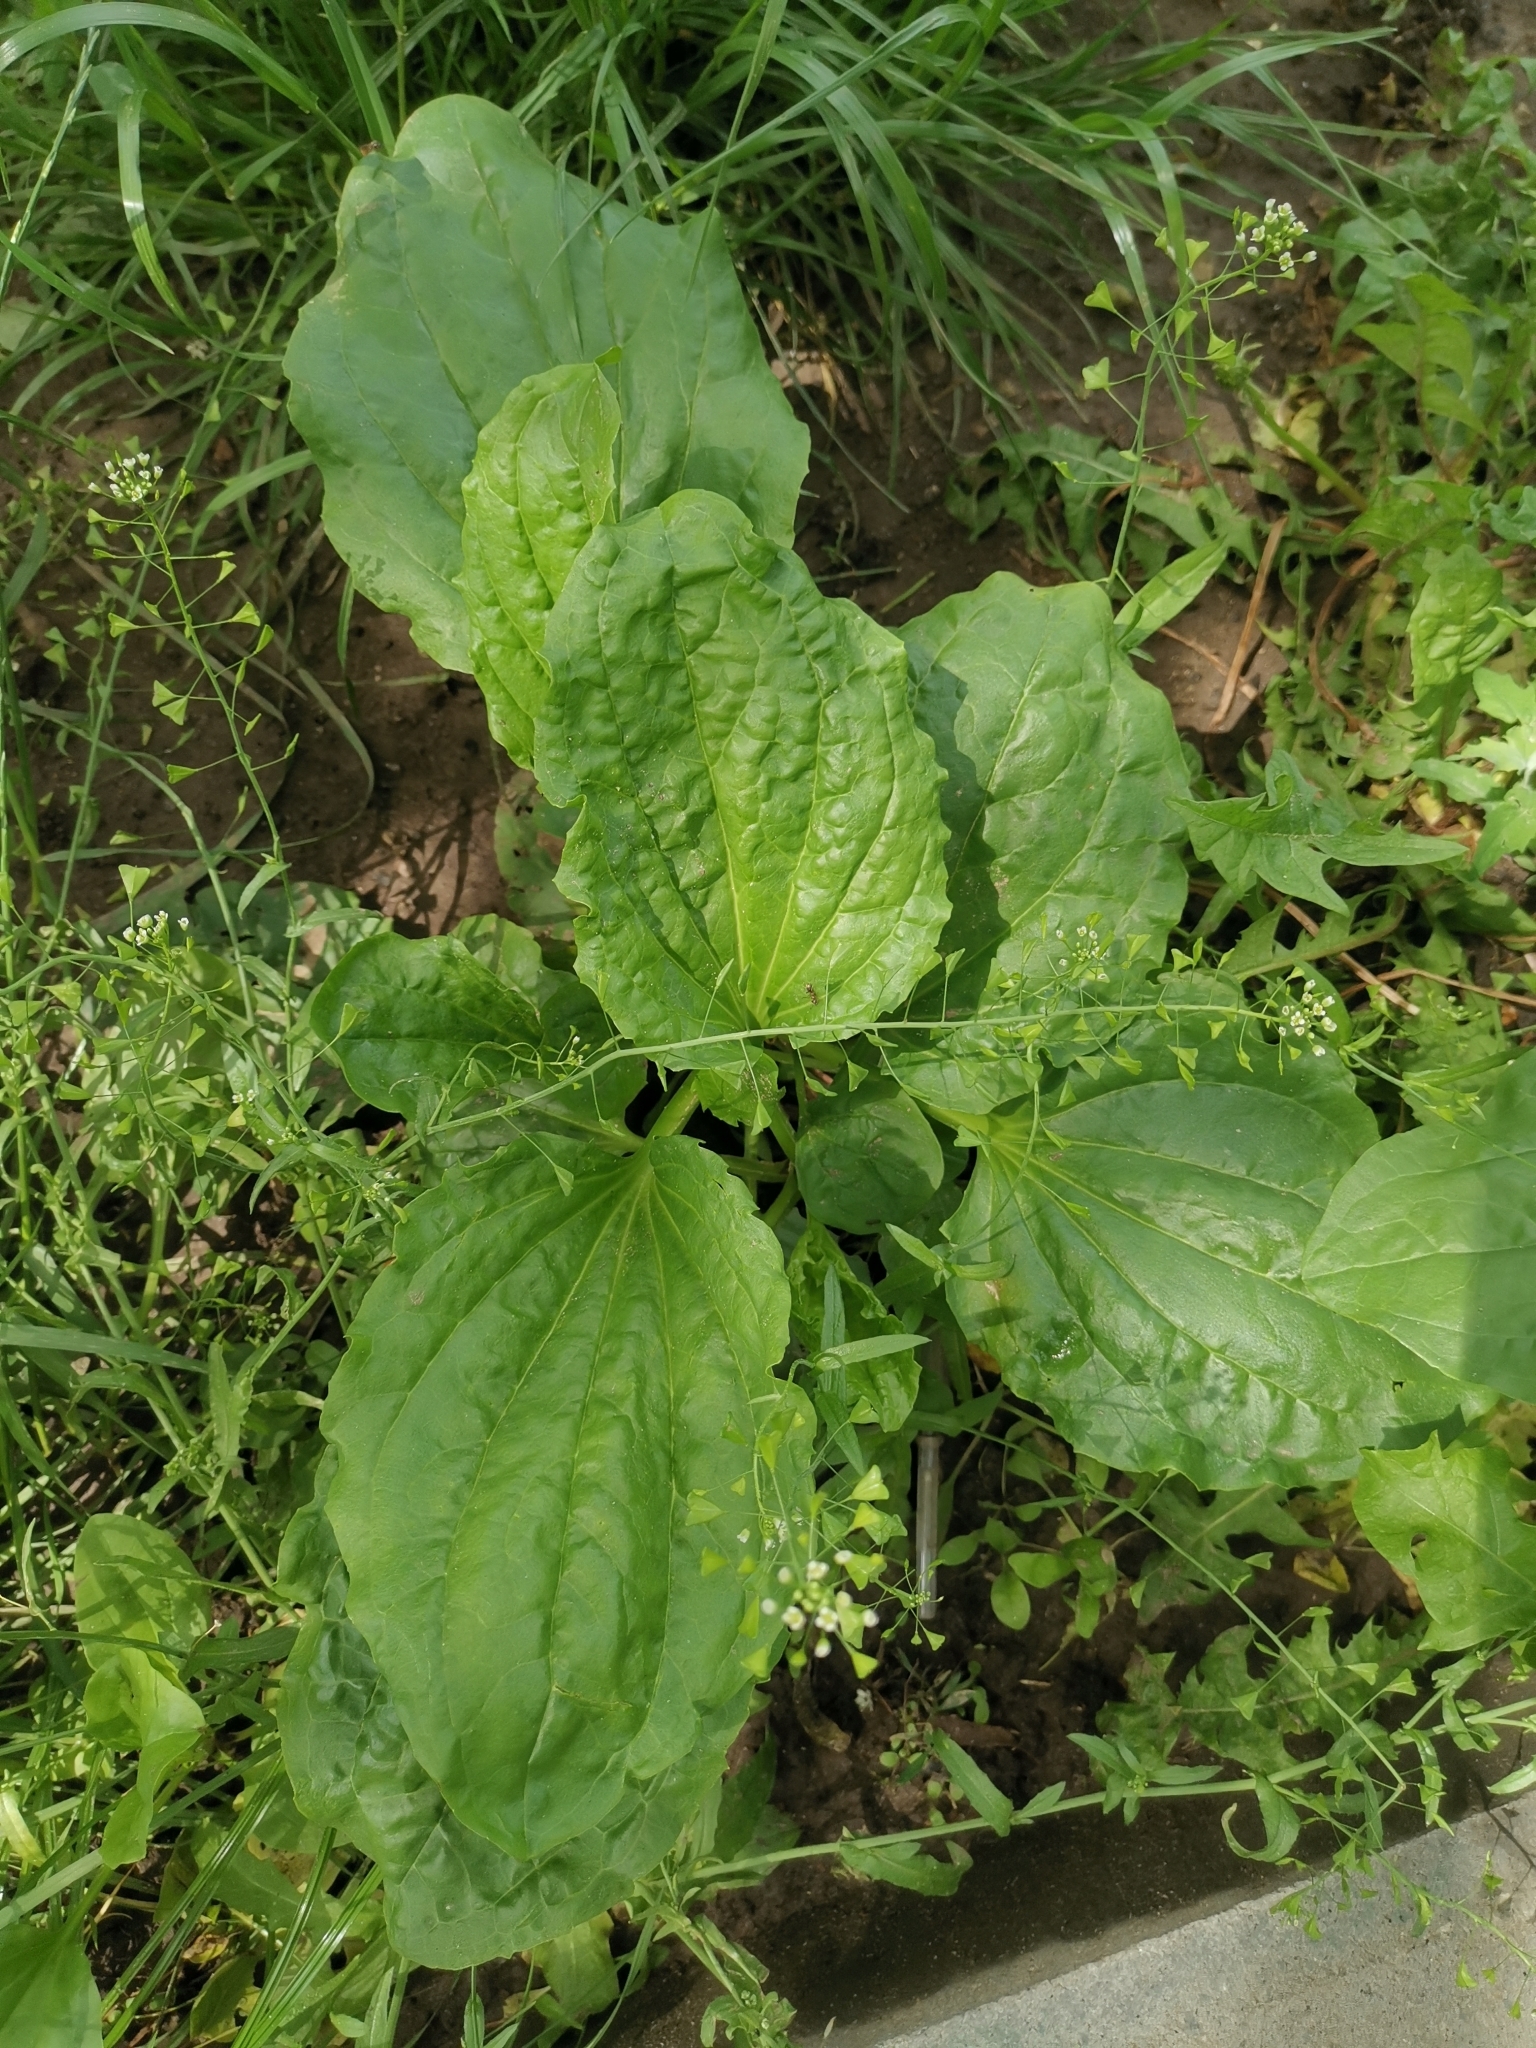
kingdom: Plantae
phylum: Tracheophyta
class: Magnoliopsida
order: Lamiales
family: Plantaginaceae
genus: Plantago
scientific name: Plantago major
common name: Common plantain
